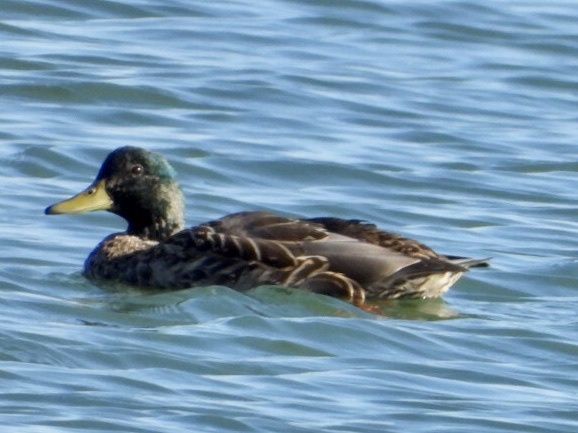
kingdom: Animalia
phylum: Chordata
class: Aves
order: Anseriformes
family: Anatidae
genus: Anas
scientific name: Anas platyrhynchos
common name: Mallard
